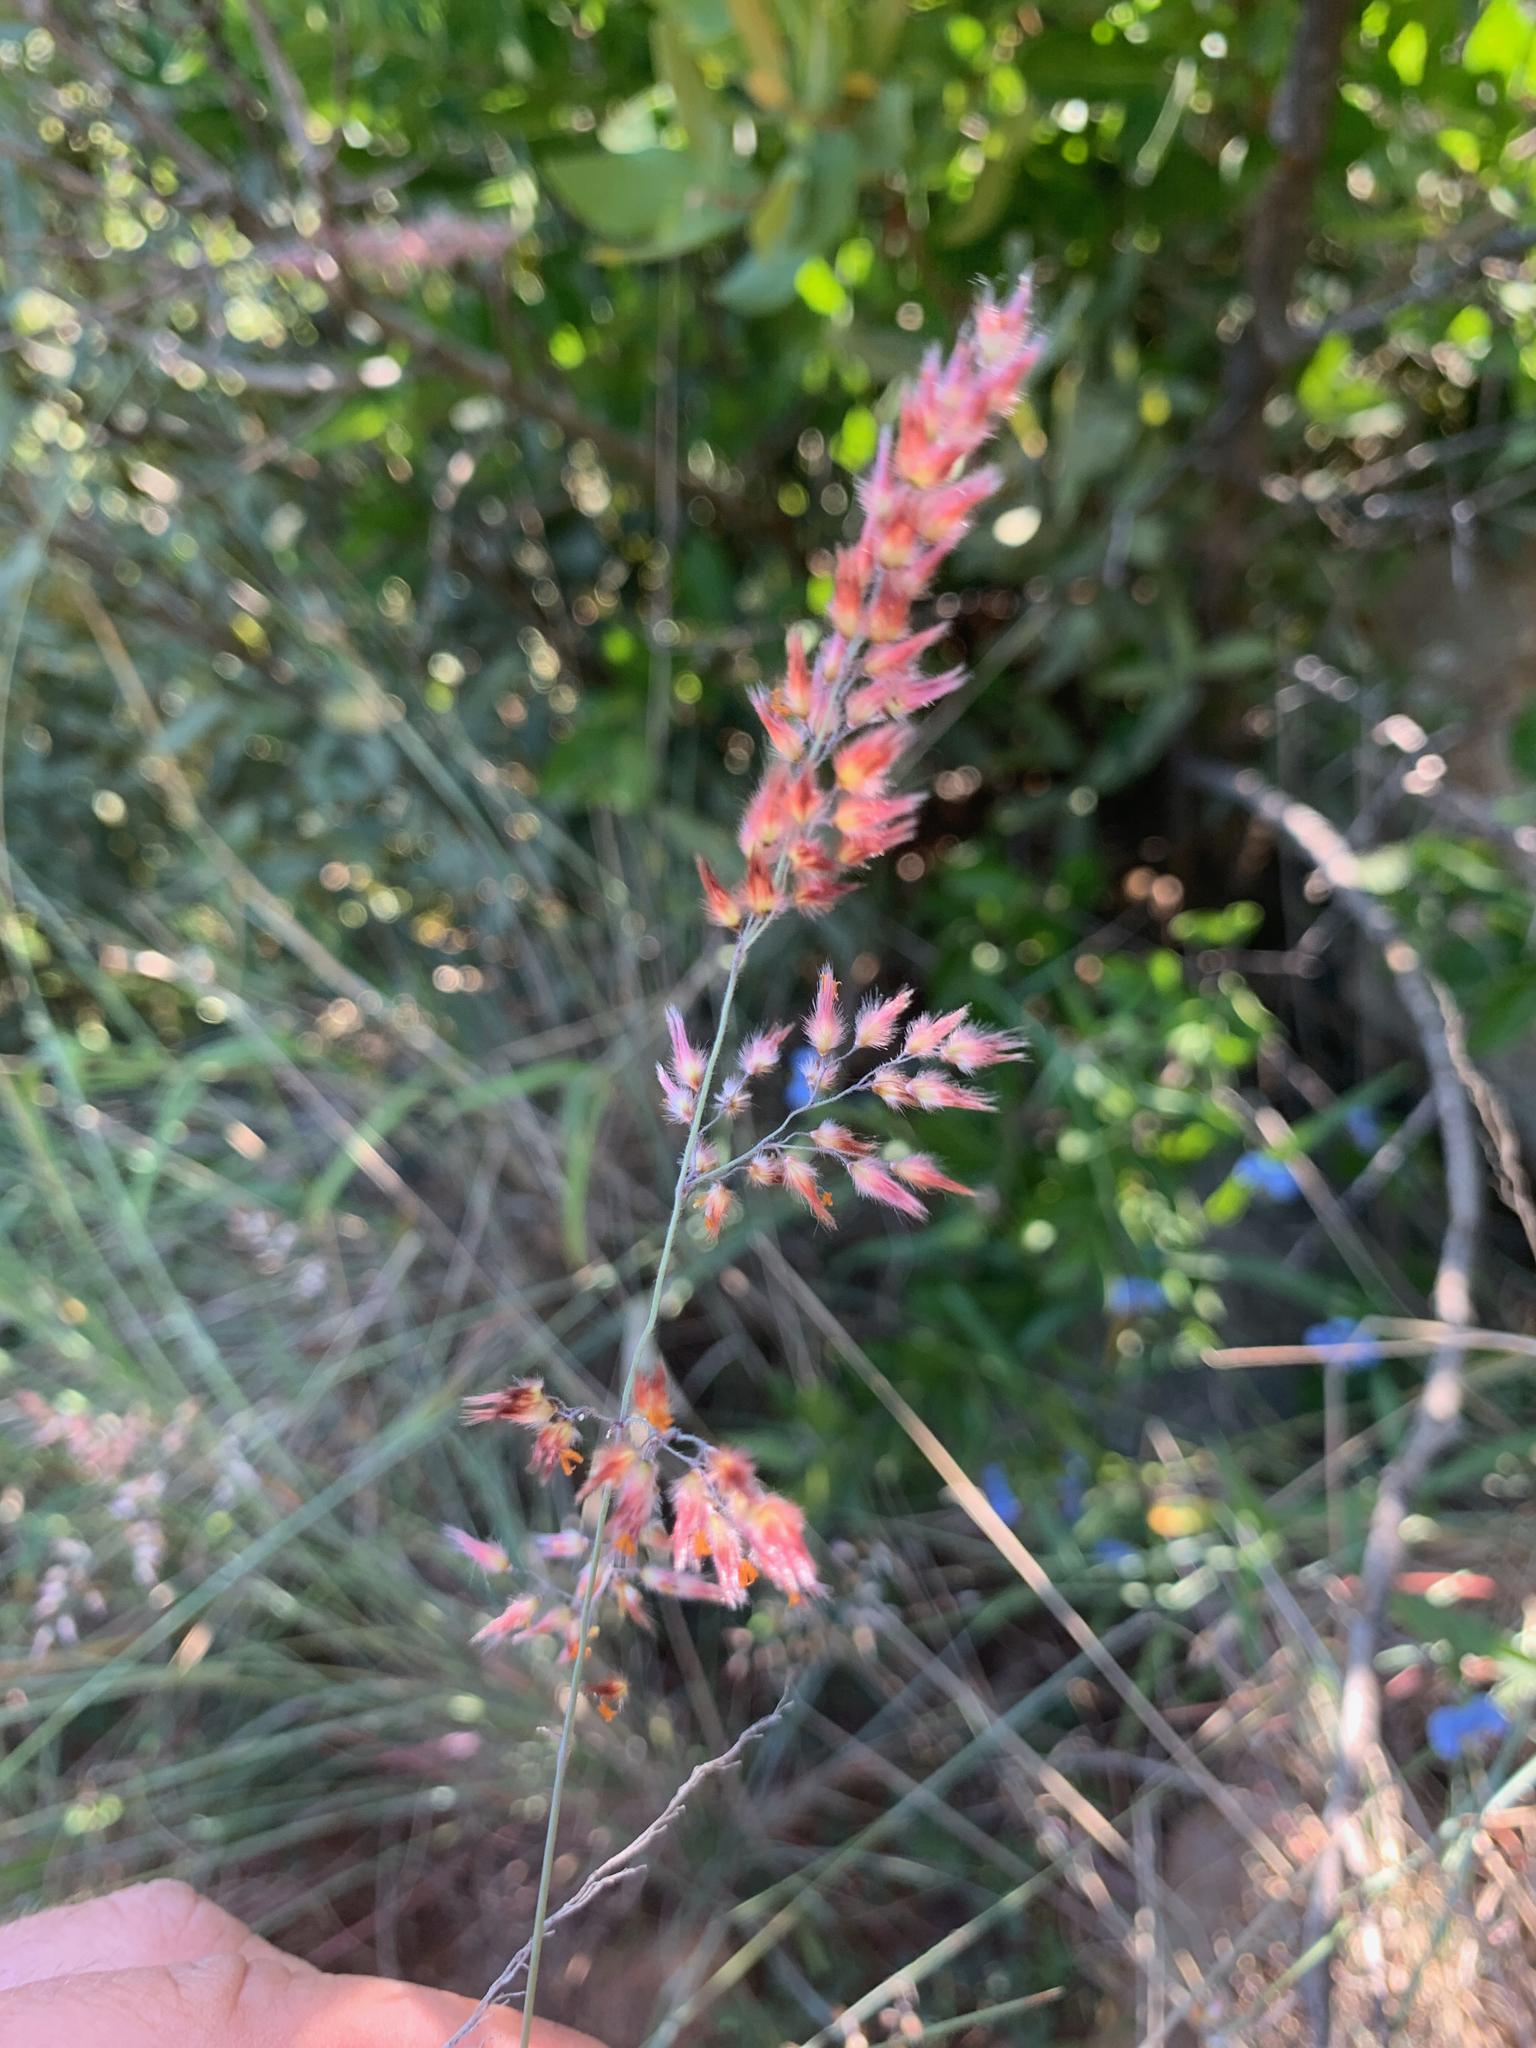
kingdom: Plantae
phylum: Tracheophyta
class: Liliopsida
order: Poales
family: Poaceae
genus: Melinis
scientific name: Melinis nerviglumis
